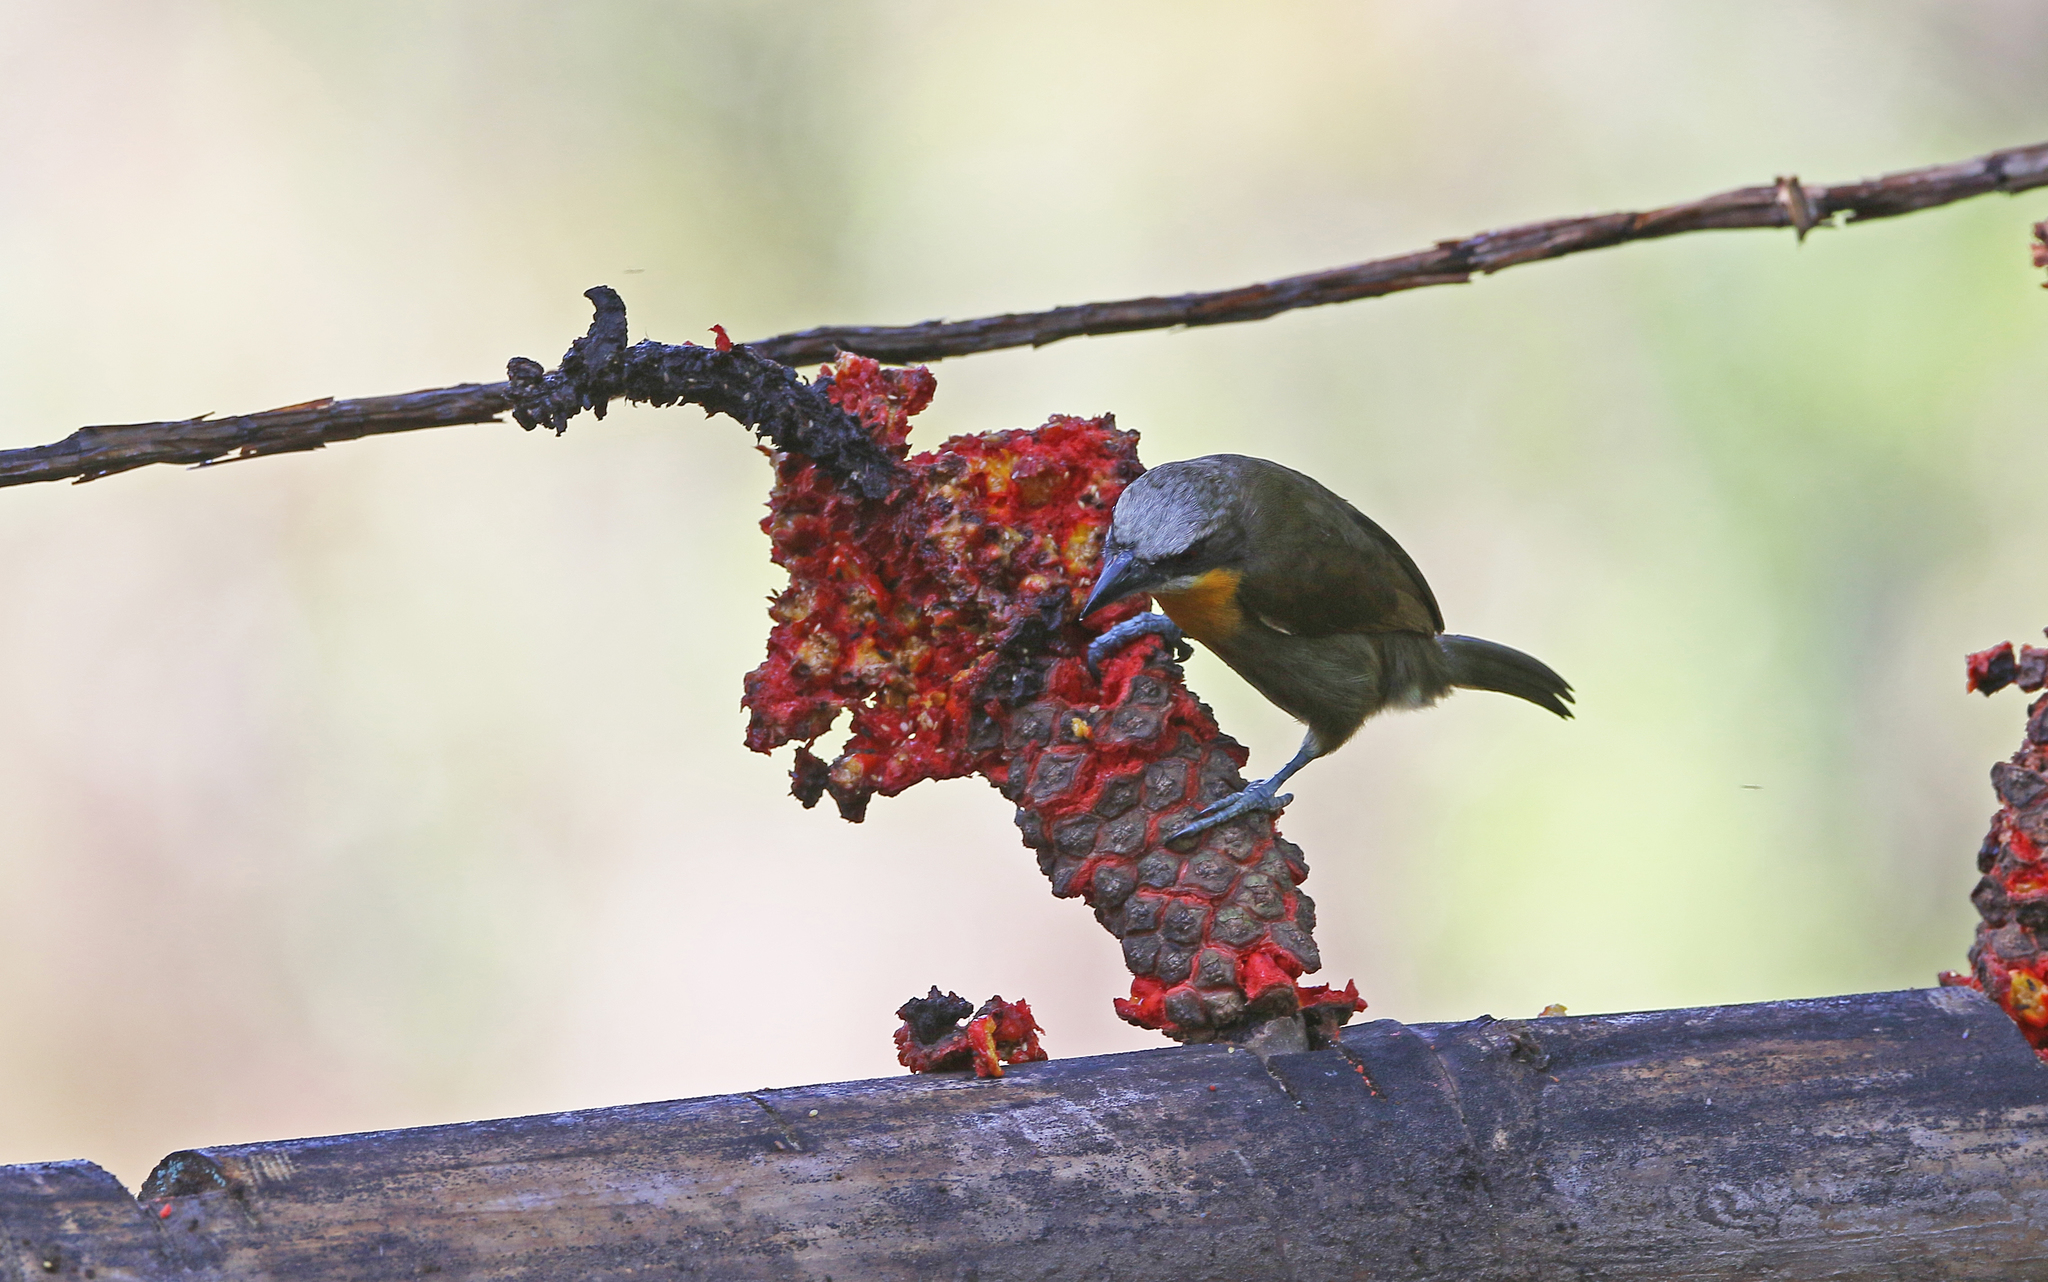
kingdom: Animalia
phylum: Chordata
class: Aves
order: Piciformes
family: Capitonidae
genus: Capito
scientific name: Capito aurovirens
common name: Scarlet-crowned barbet
